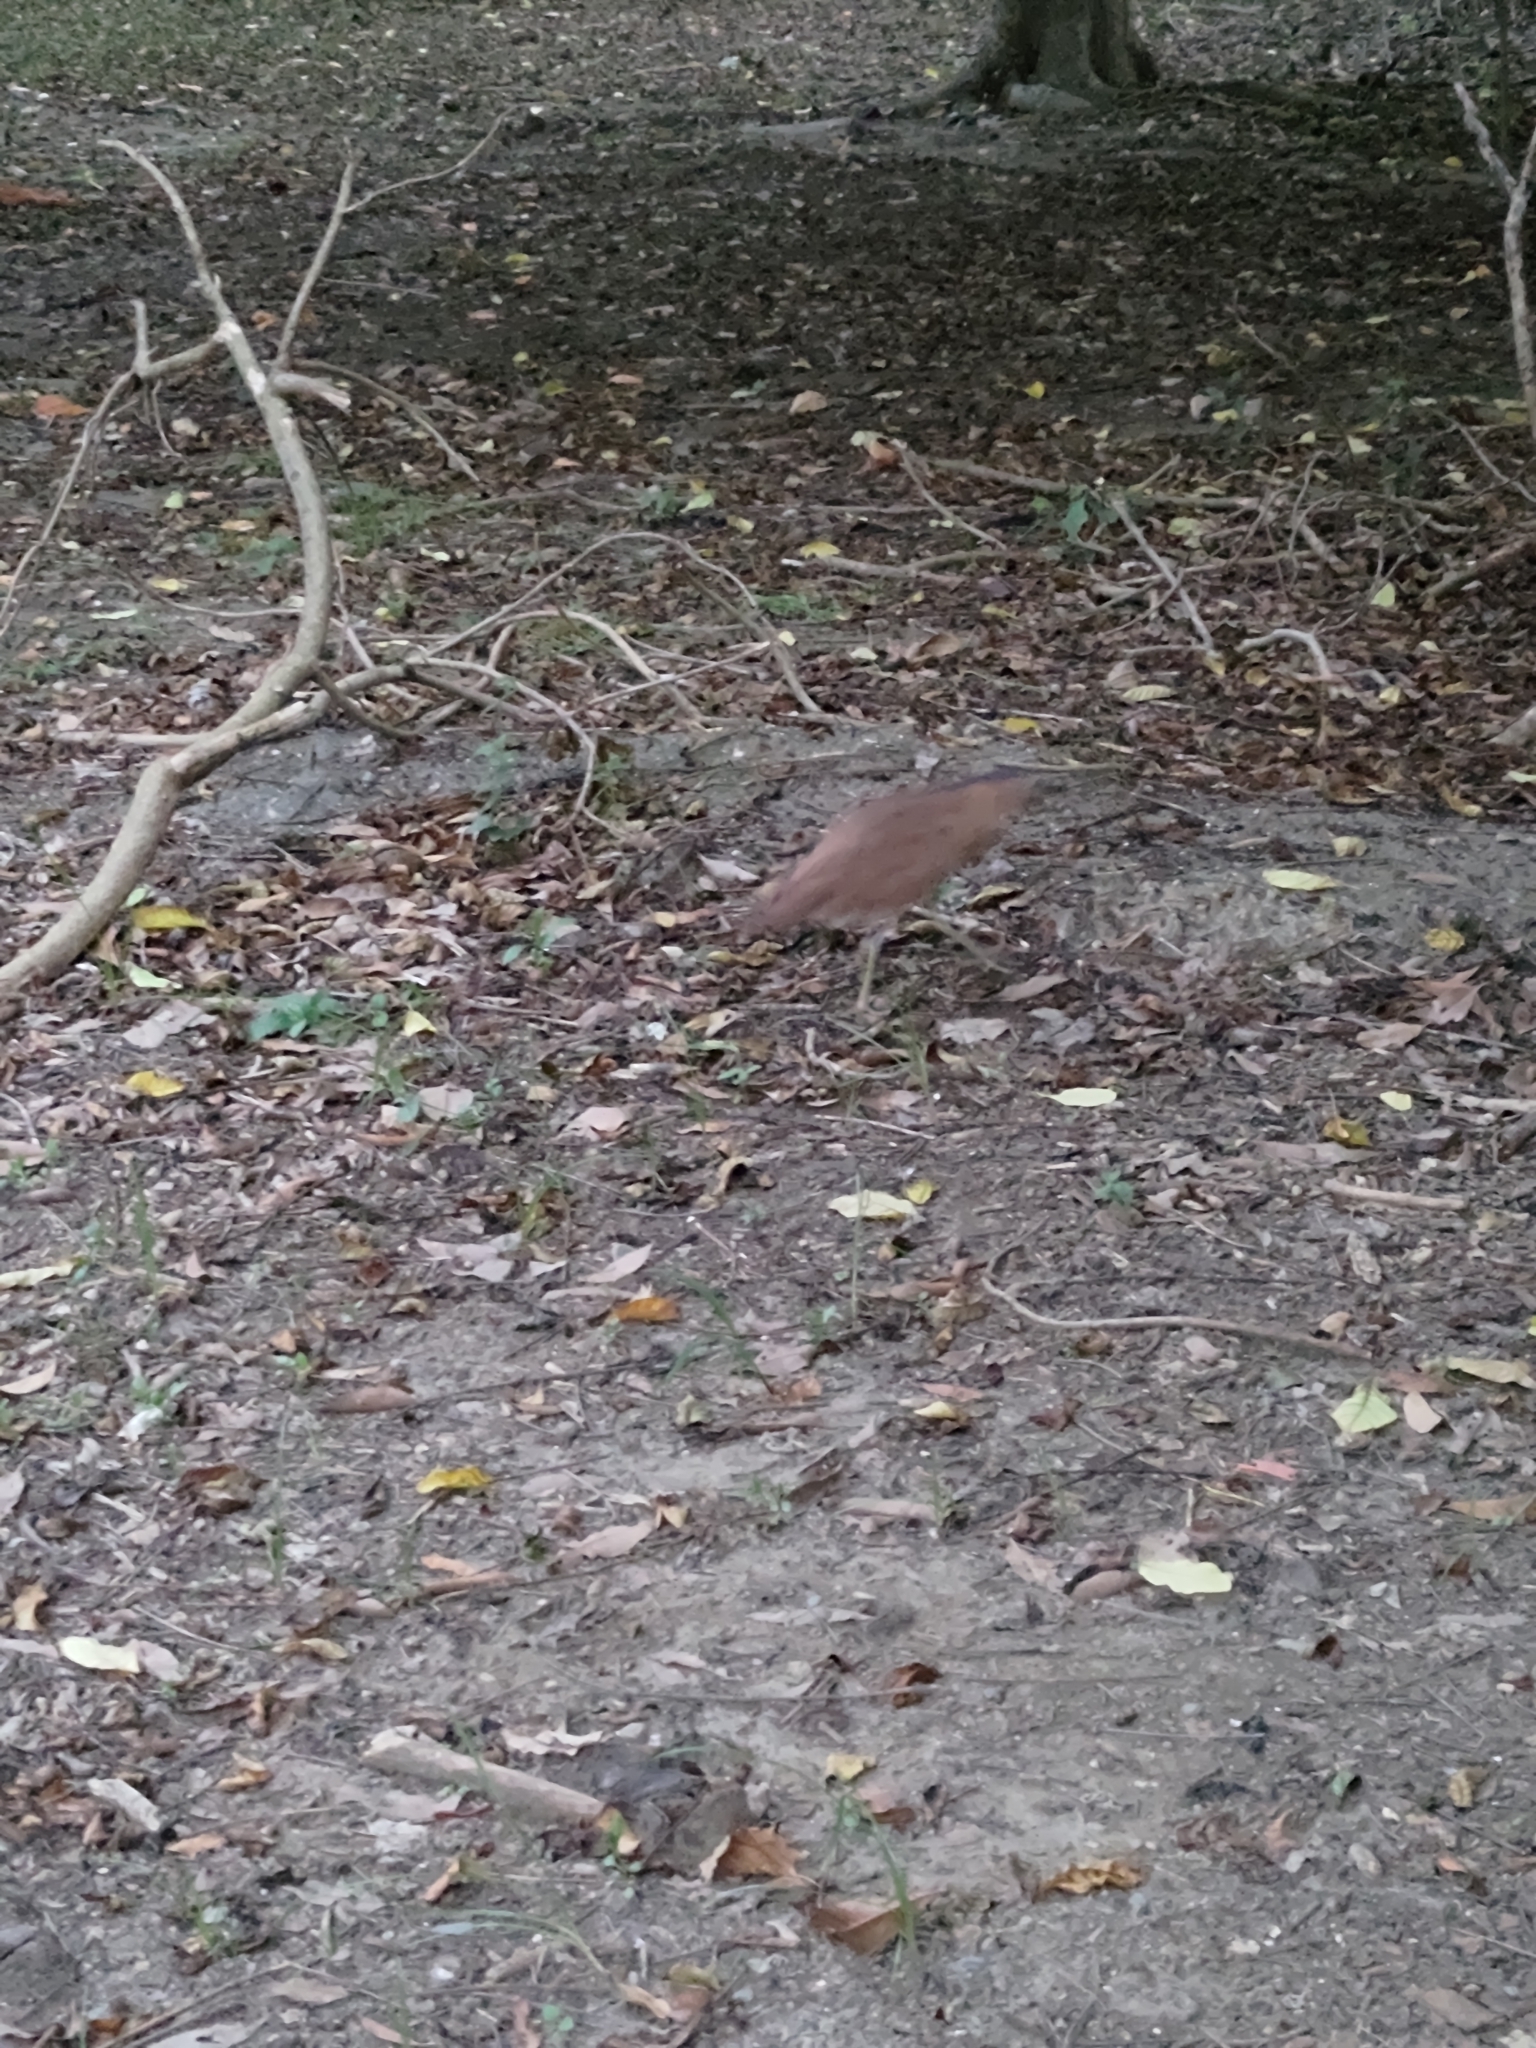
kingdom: Animalia
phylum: Chordata
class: Aves
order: Pelecaniformes
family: Ardeidae
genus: Gorsachius
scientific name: Gorsachius melanolophus
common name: Malayan night heron
